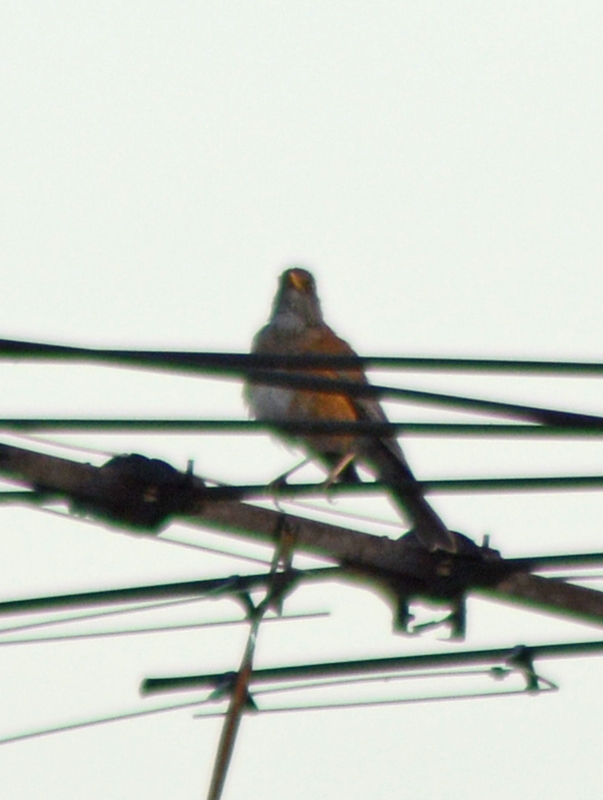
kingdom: Animalia
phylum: Chordata
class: Aves
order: Passeriformes
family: Turdidae
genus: Turdus
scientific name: Turdus rufopalliatus
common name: Rufous-backed robin
